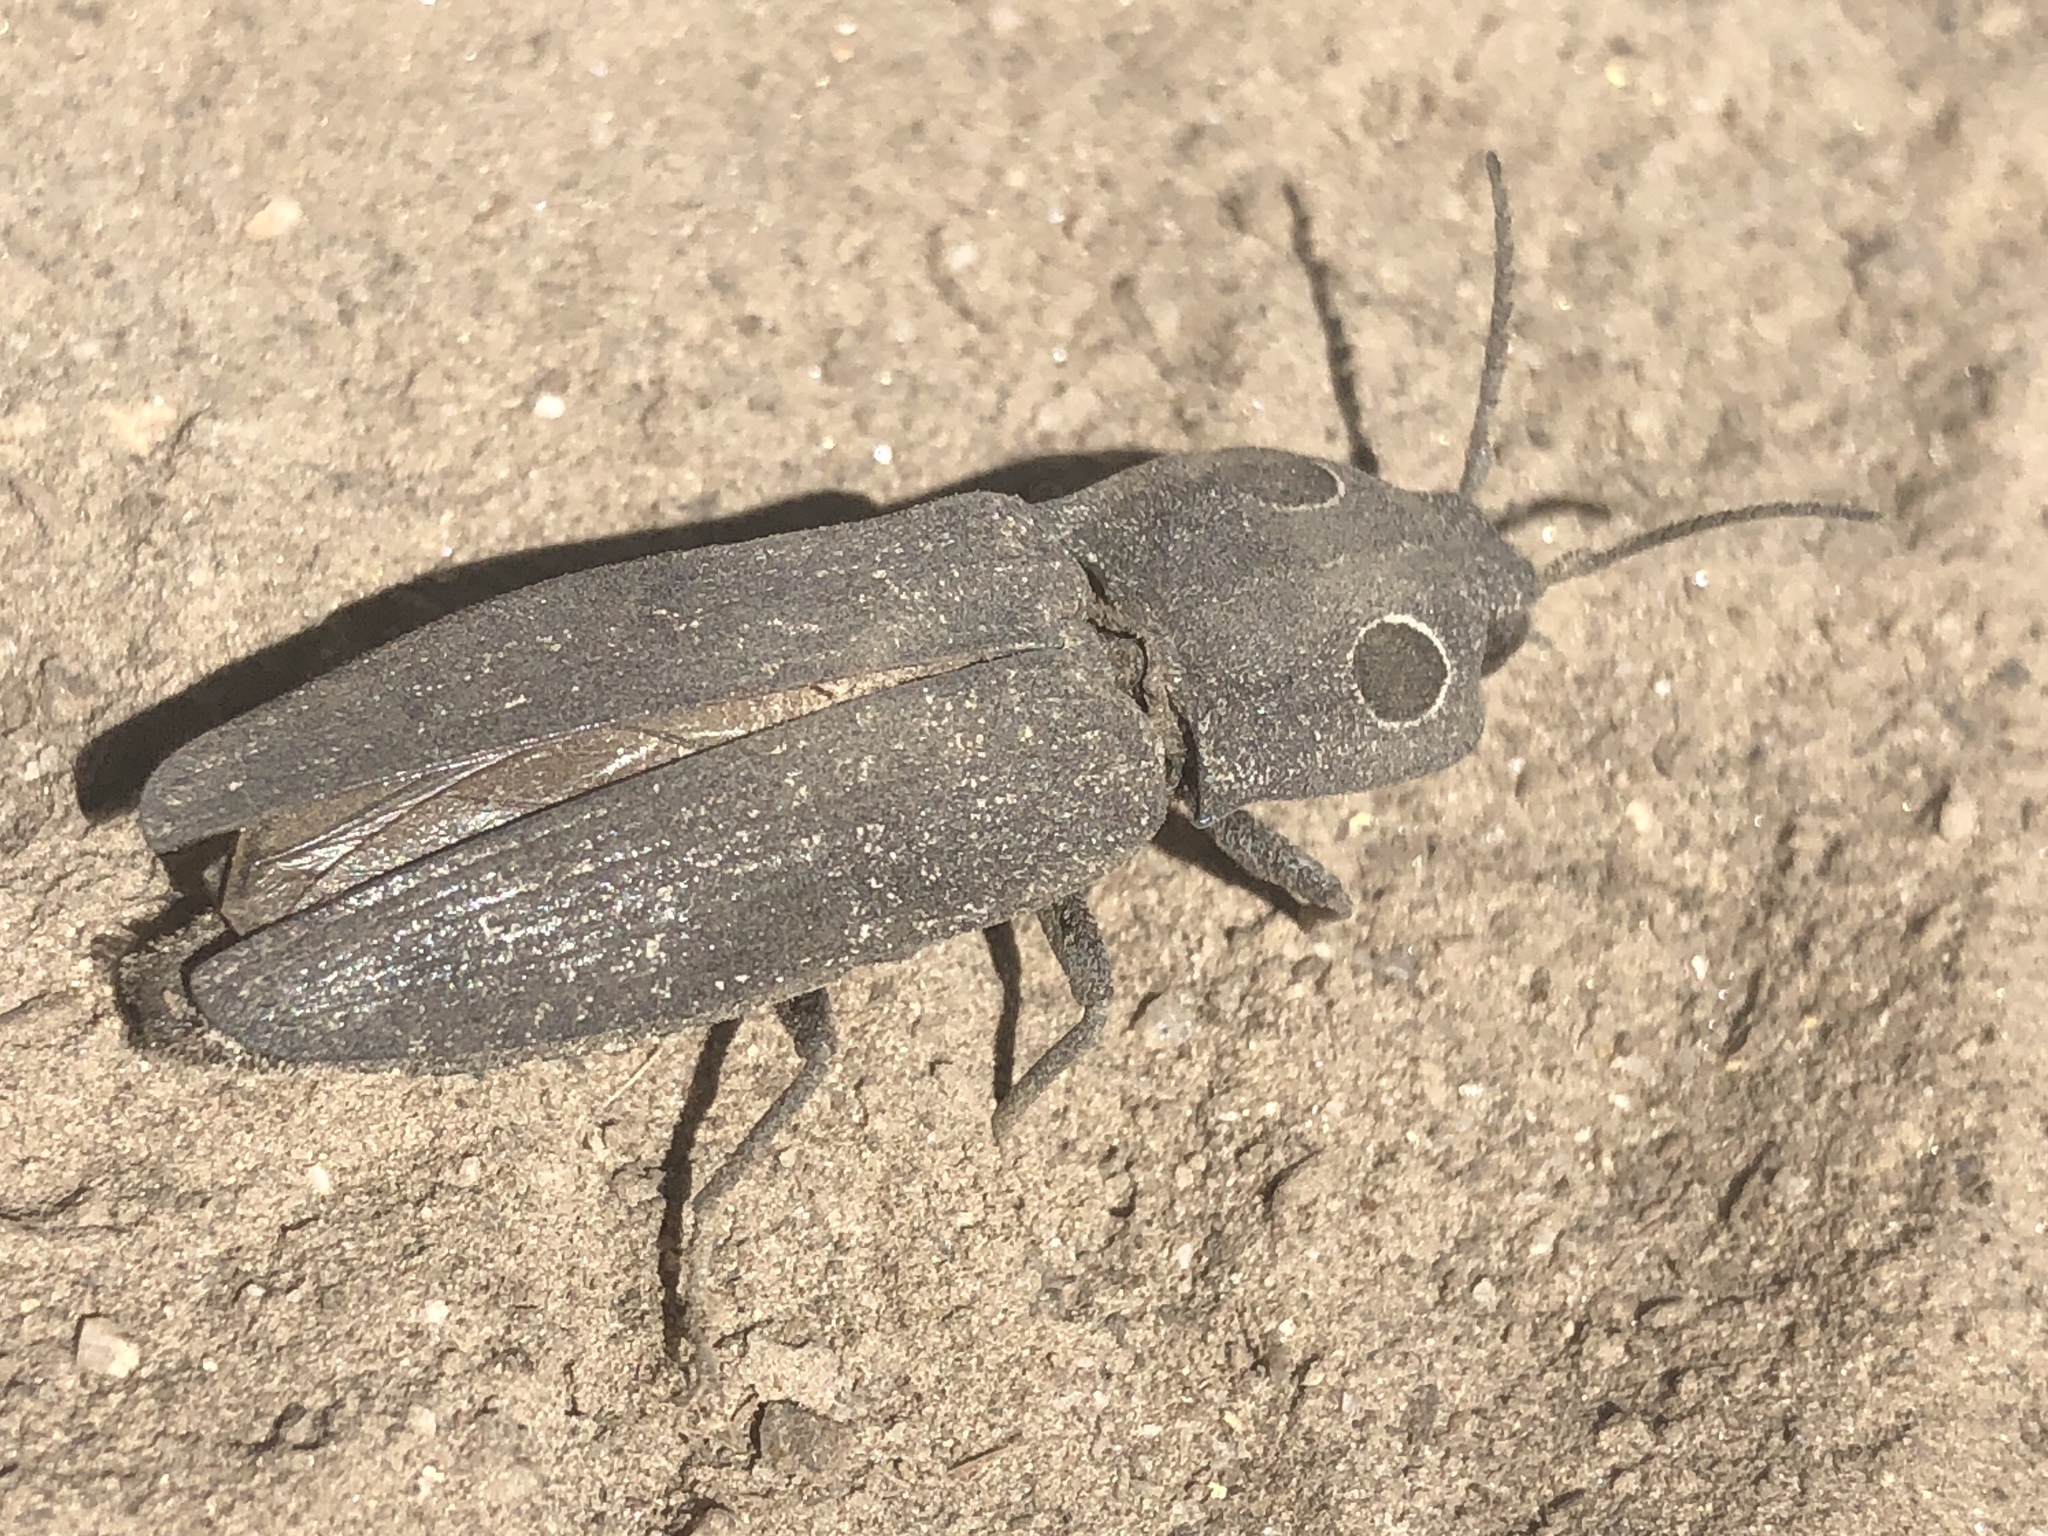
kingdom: Animalia
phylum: Arthropoda
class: Insecta
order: Coleoptera
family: Elateridae
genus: Alaus
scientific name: Alaus melanops
